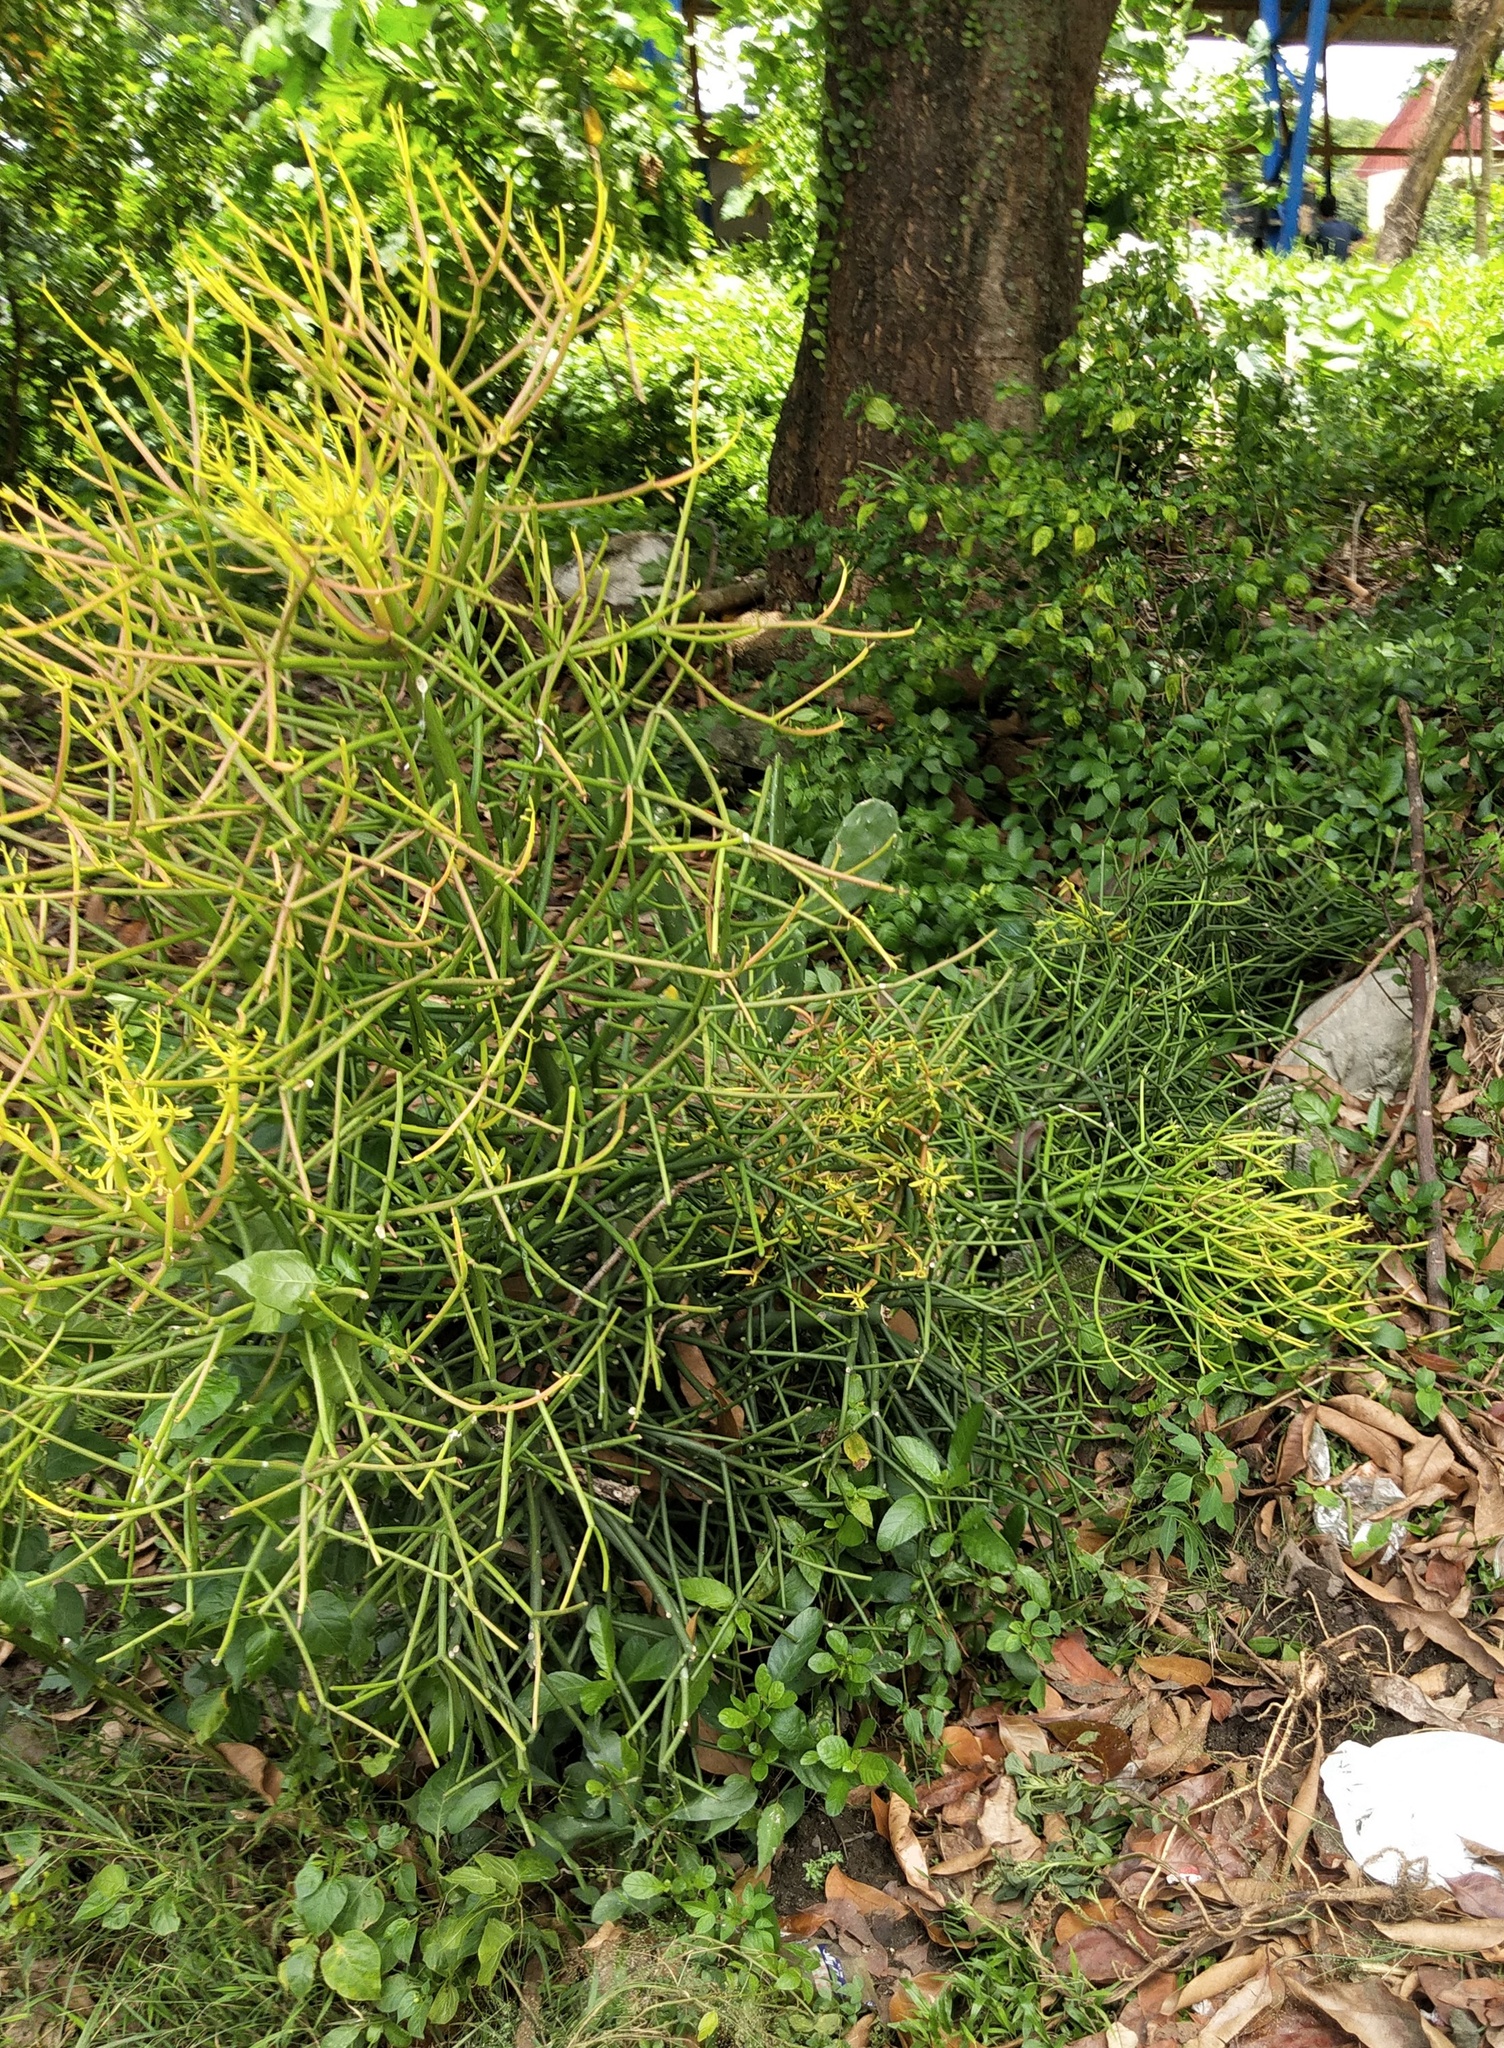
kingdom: Plantae
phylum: Tracheophyta
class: Magnoliopsida
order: Malpighiales
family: Euphorbiaceae
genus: Euphorbia
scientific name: Euphorbia tirucalli
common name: Indiantree spurge
